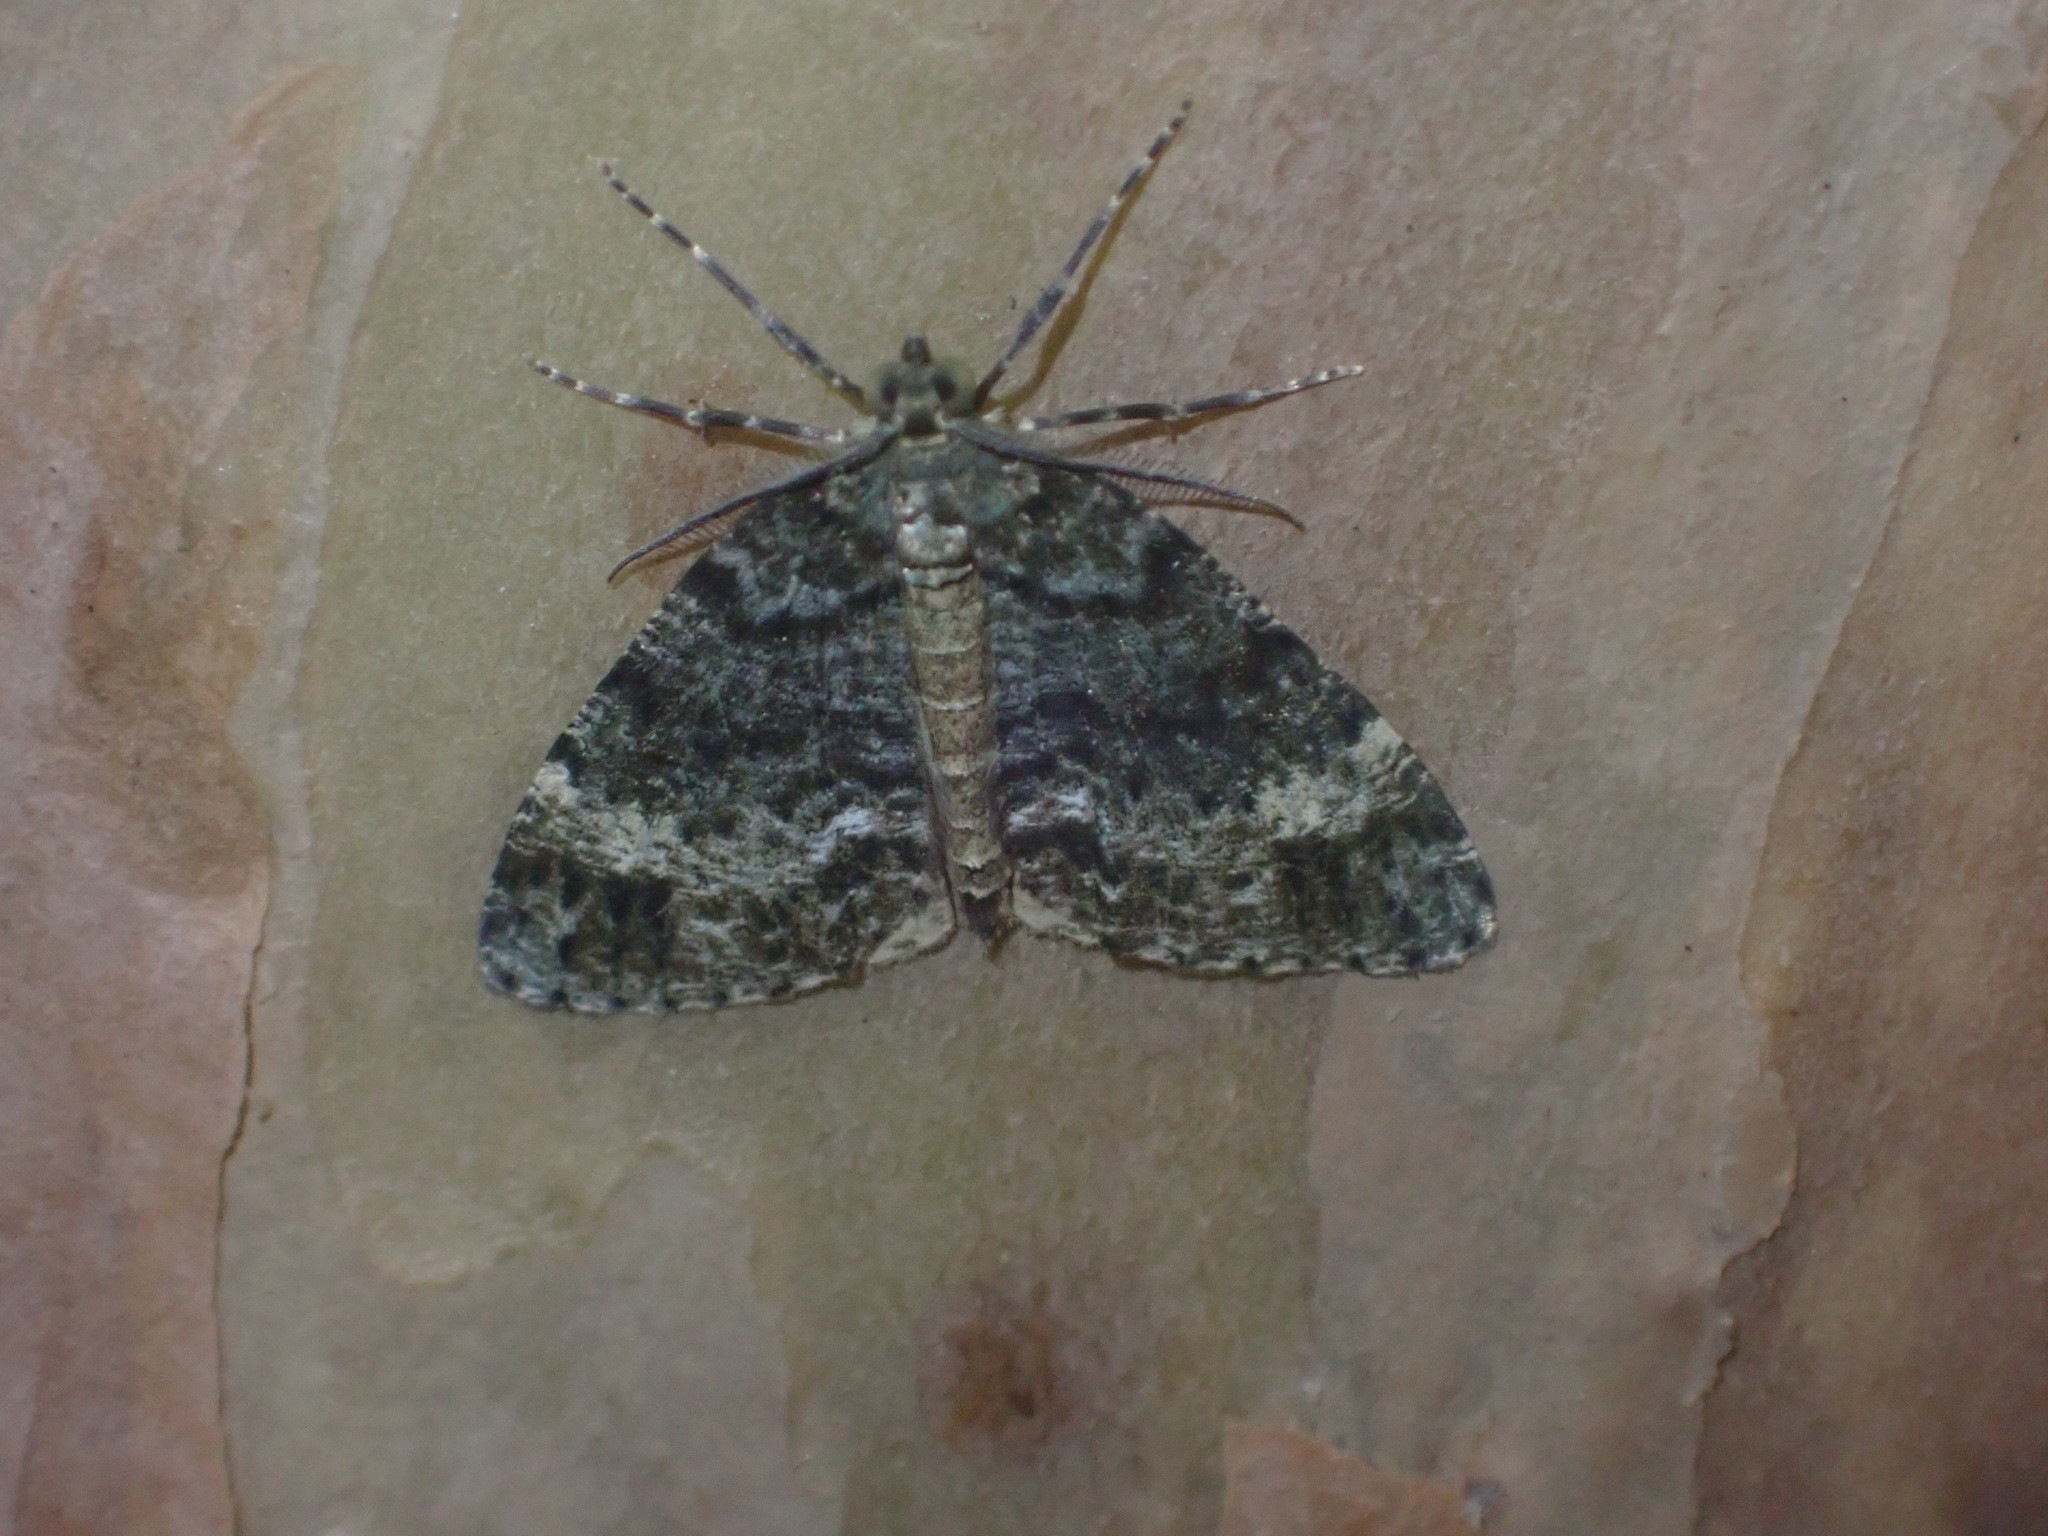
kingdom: Animalia
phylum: Arthropoda
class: Insecta
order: Lepidoptera
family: Geometridae
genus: Pseudocoremia
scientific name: Pseudocoremia indistincta
